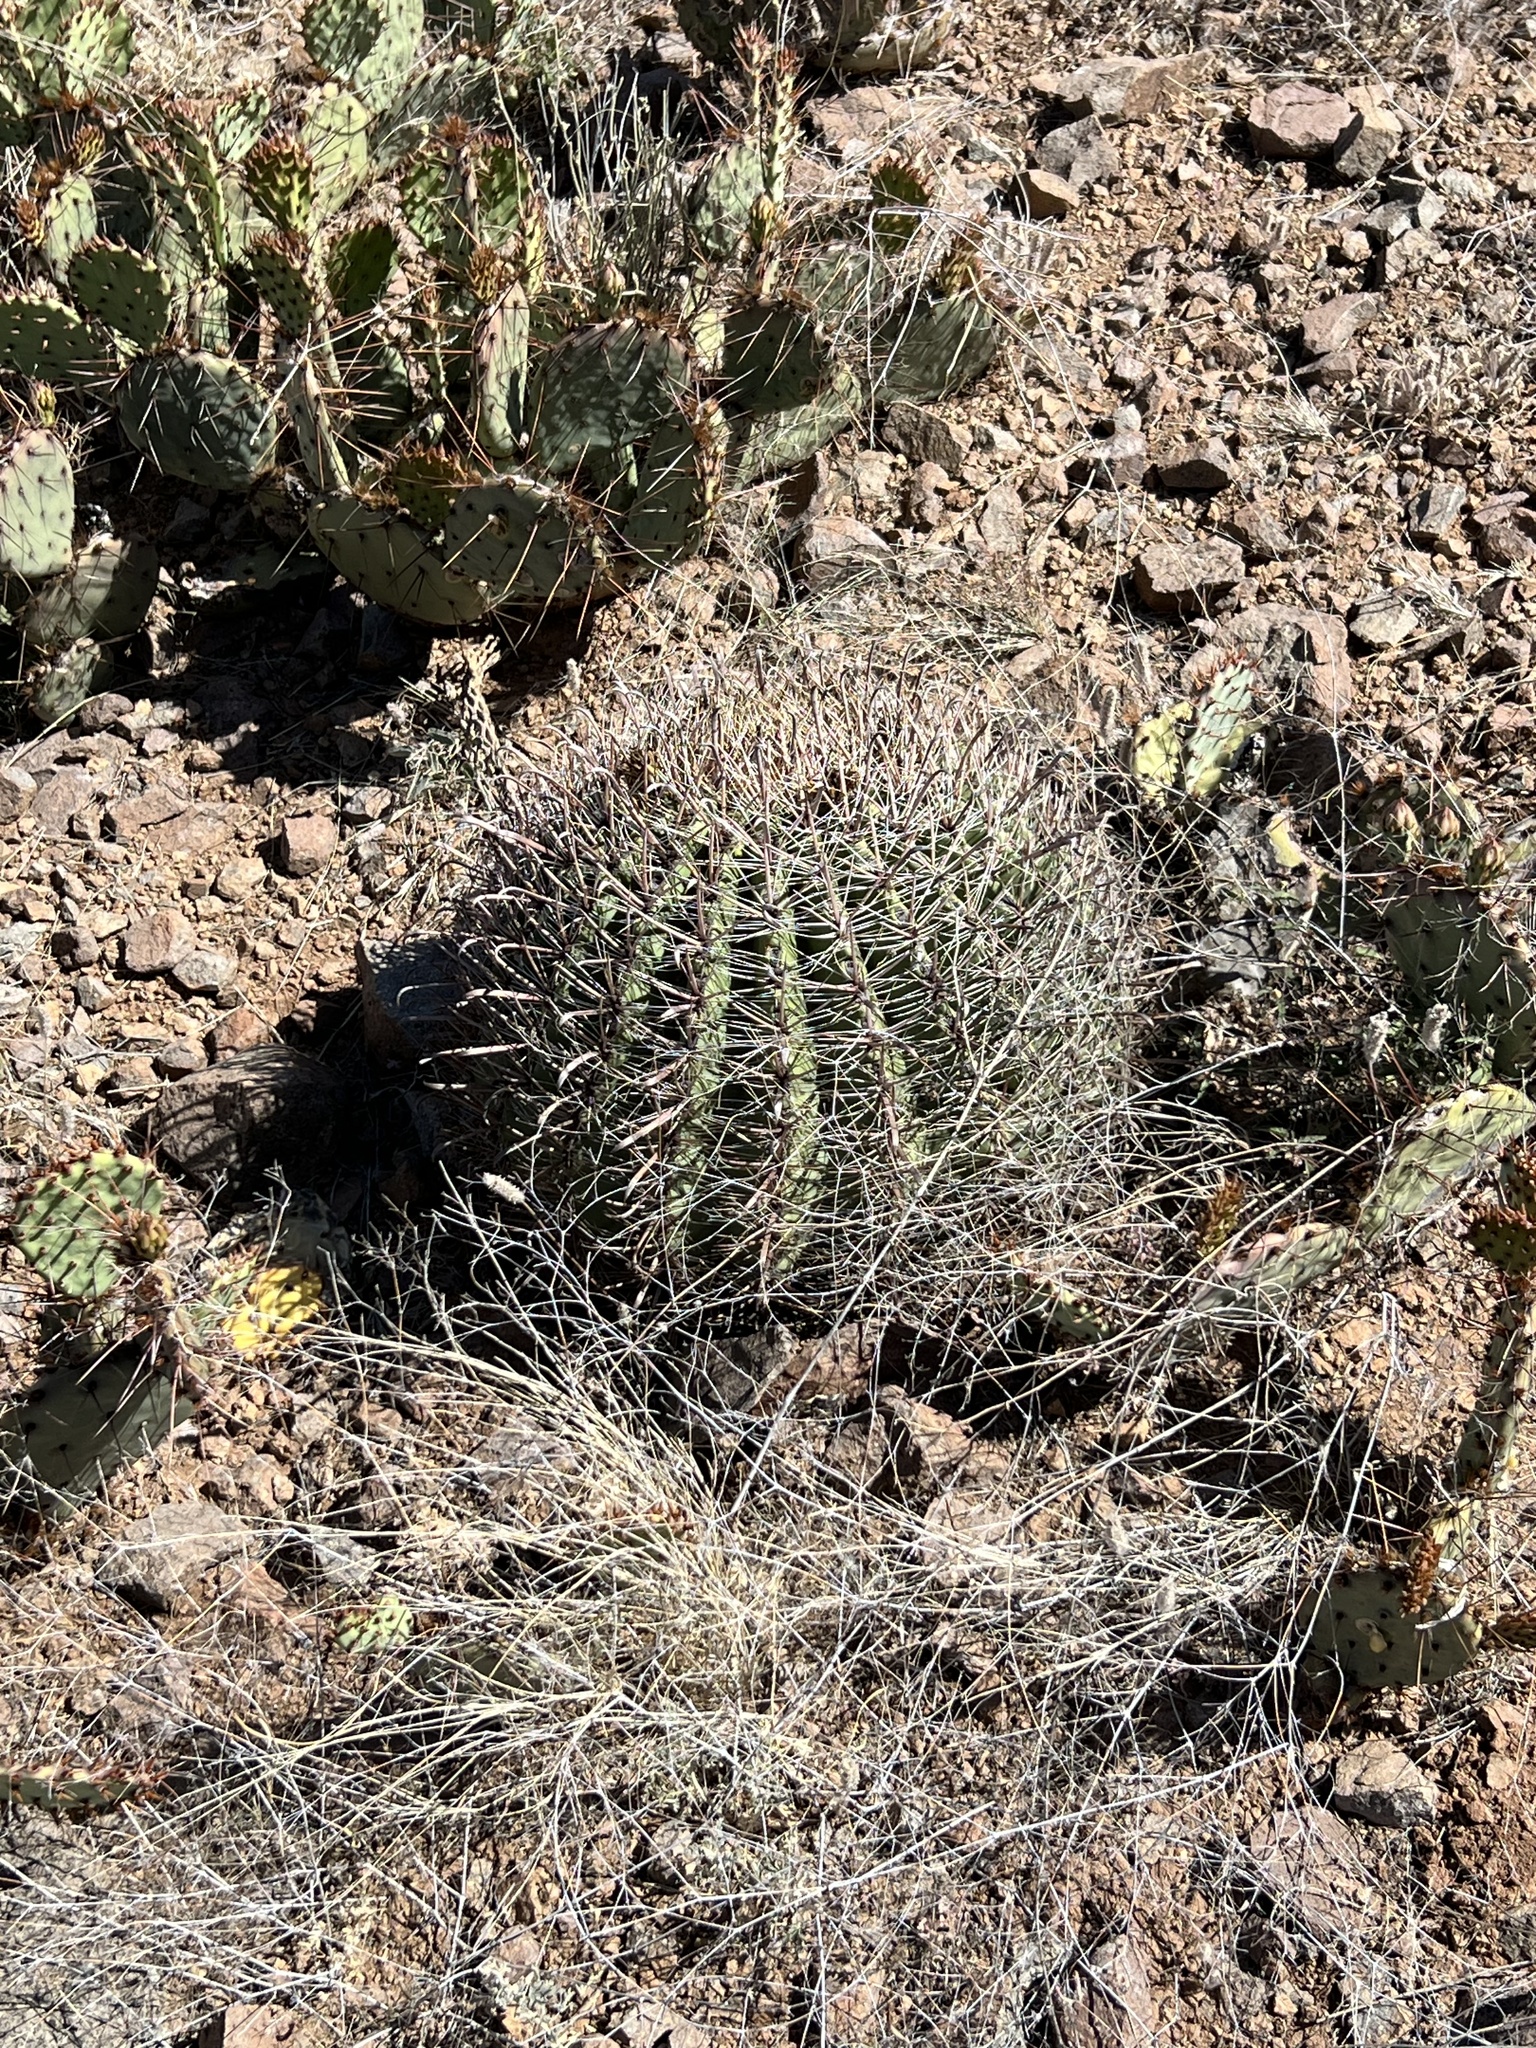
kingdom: Plantae
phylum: Tracheophyta
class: Magnoliopsida
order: Caryophyllales
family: Cactaceae
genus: Ferocactus
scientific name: Ferocactus wislizeni
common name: Candy barrel cactus
